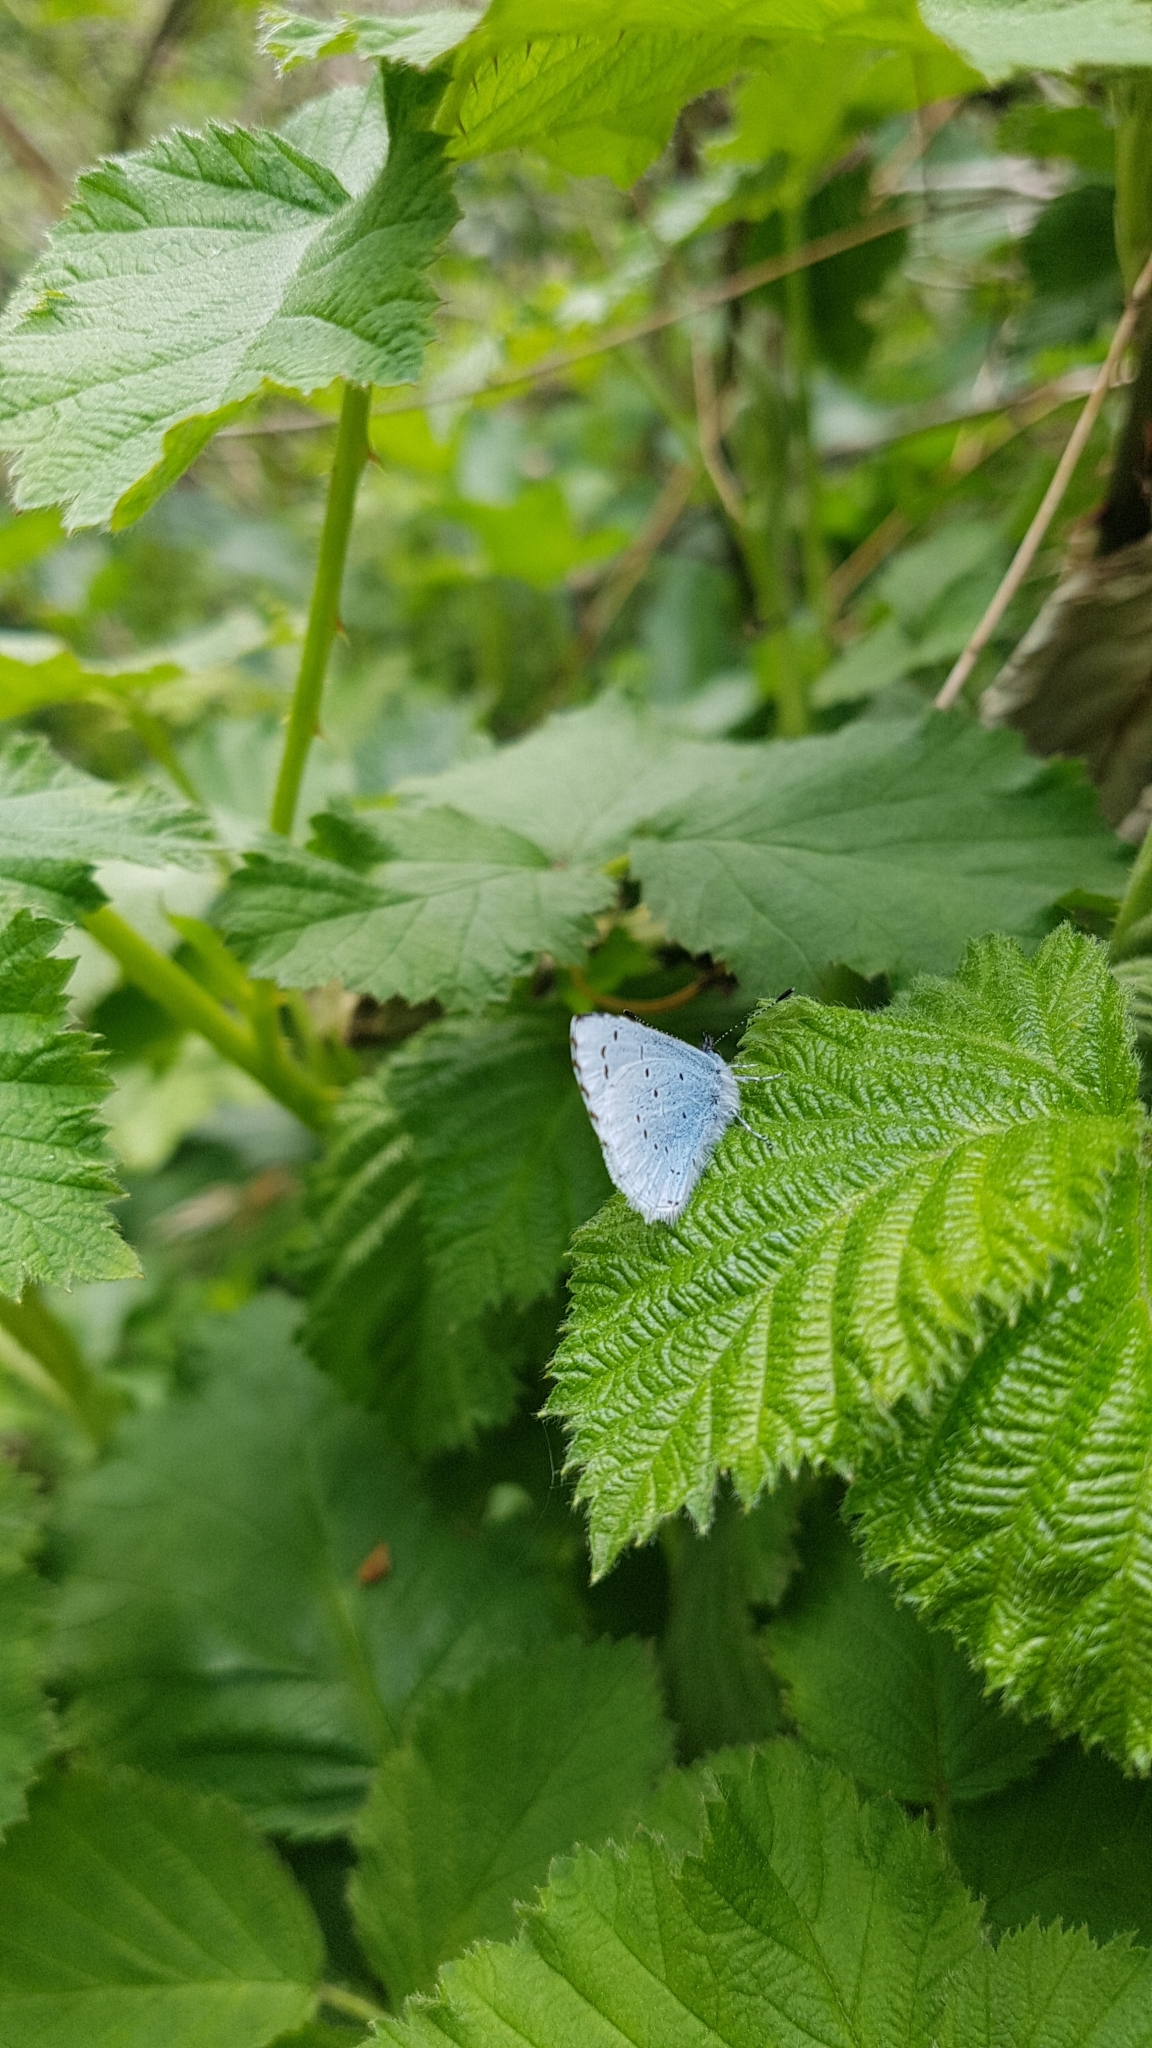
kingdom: Animalia
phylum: Arthropoda
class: Insecta
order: Lepidoptera
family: Lycaenidae
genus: Celastrina
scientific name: Celastrina argiolus
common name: Holly blue
